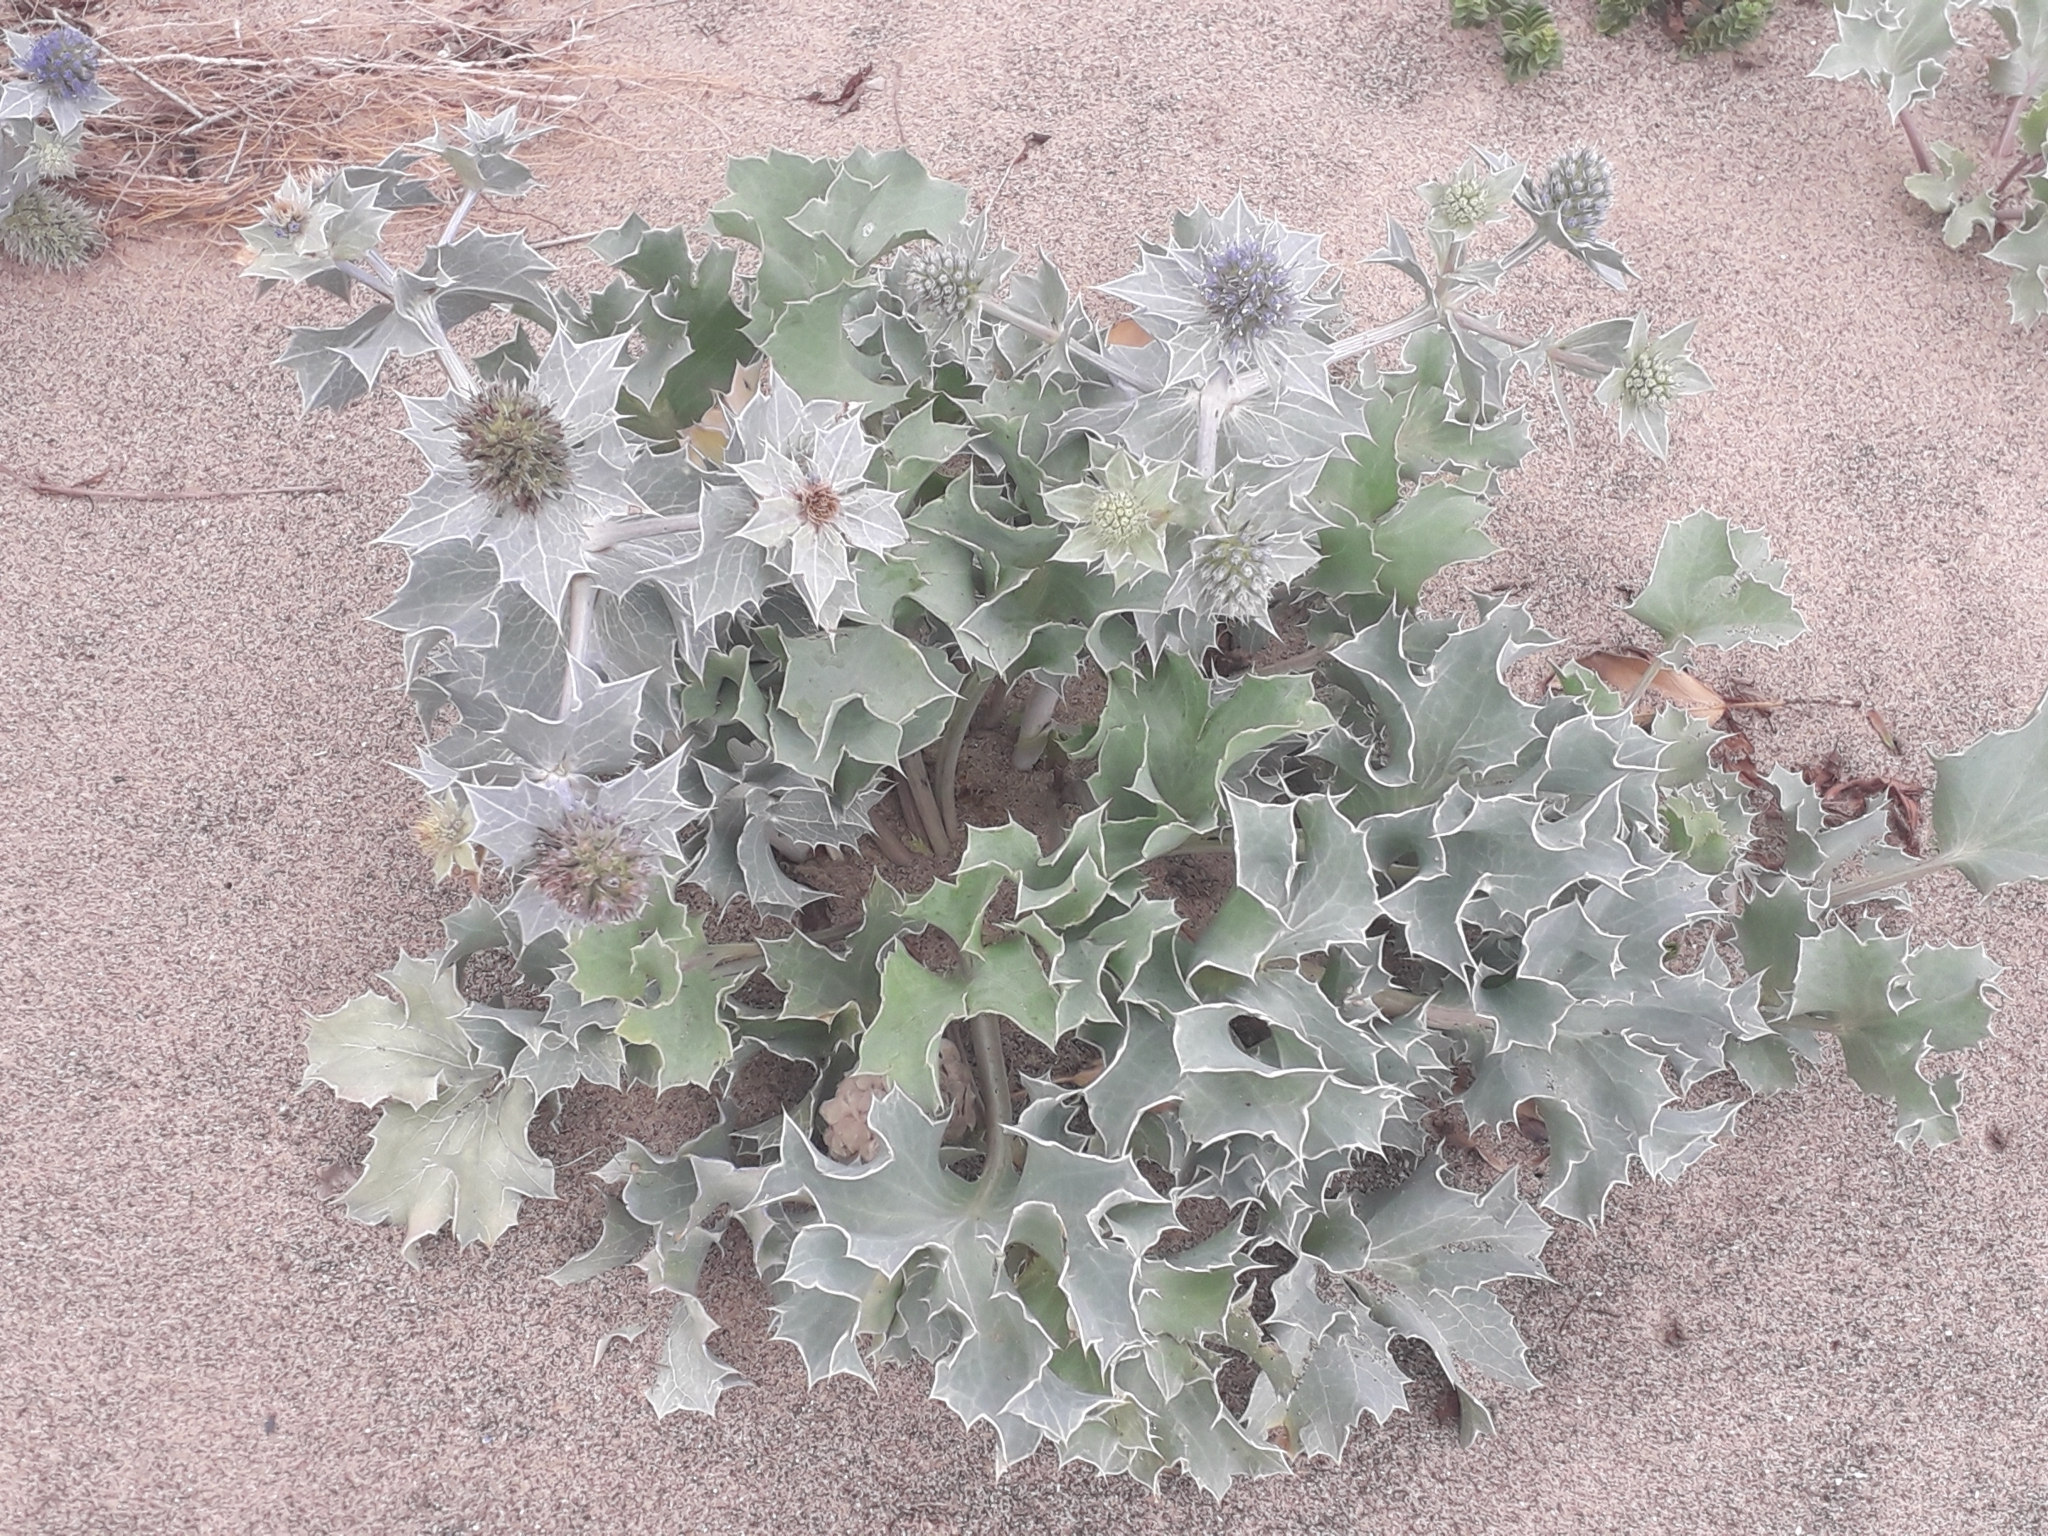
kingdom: Plantae
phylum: Tracheophyta
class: Magnoliopsida
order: Apiales
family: Apiaceae
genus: Eryngium
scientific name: Eryngium maritimum
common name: Sea-holly
